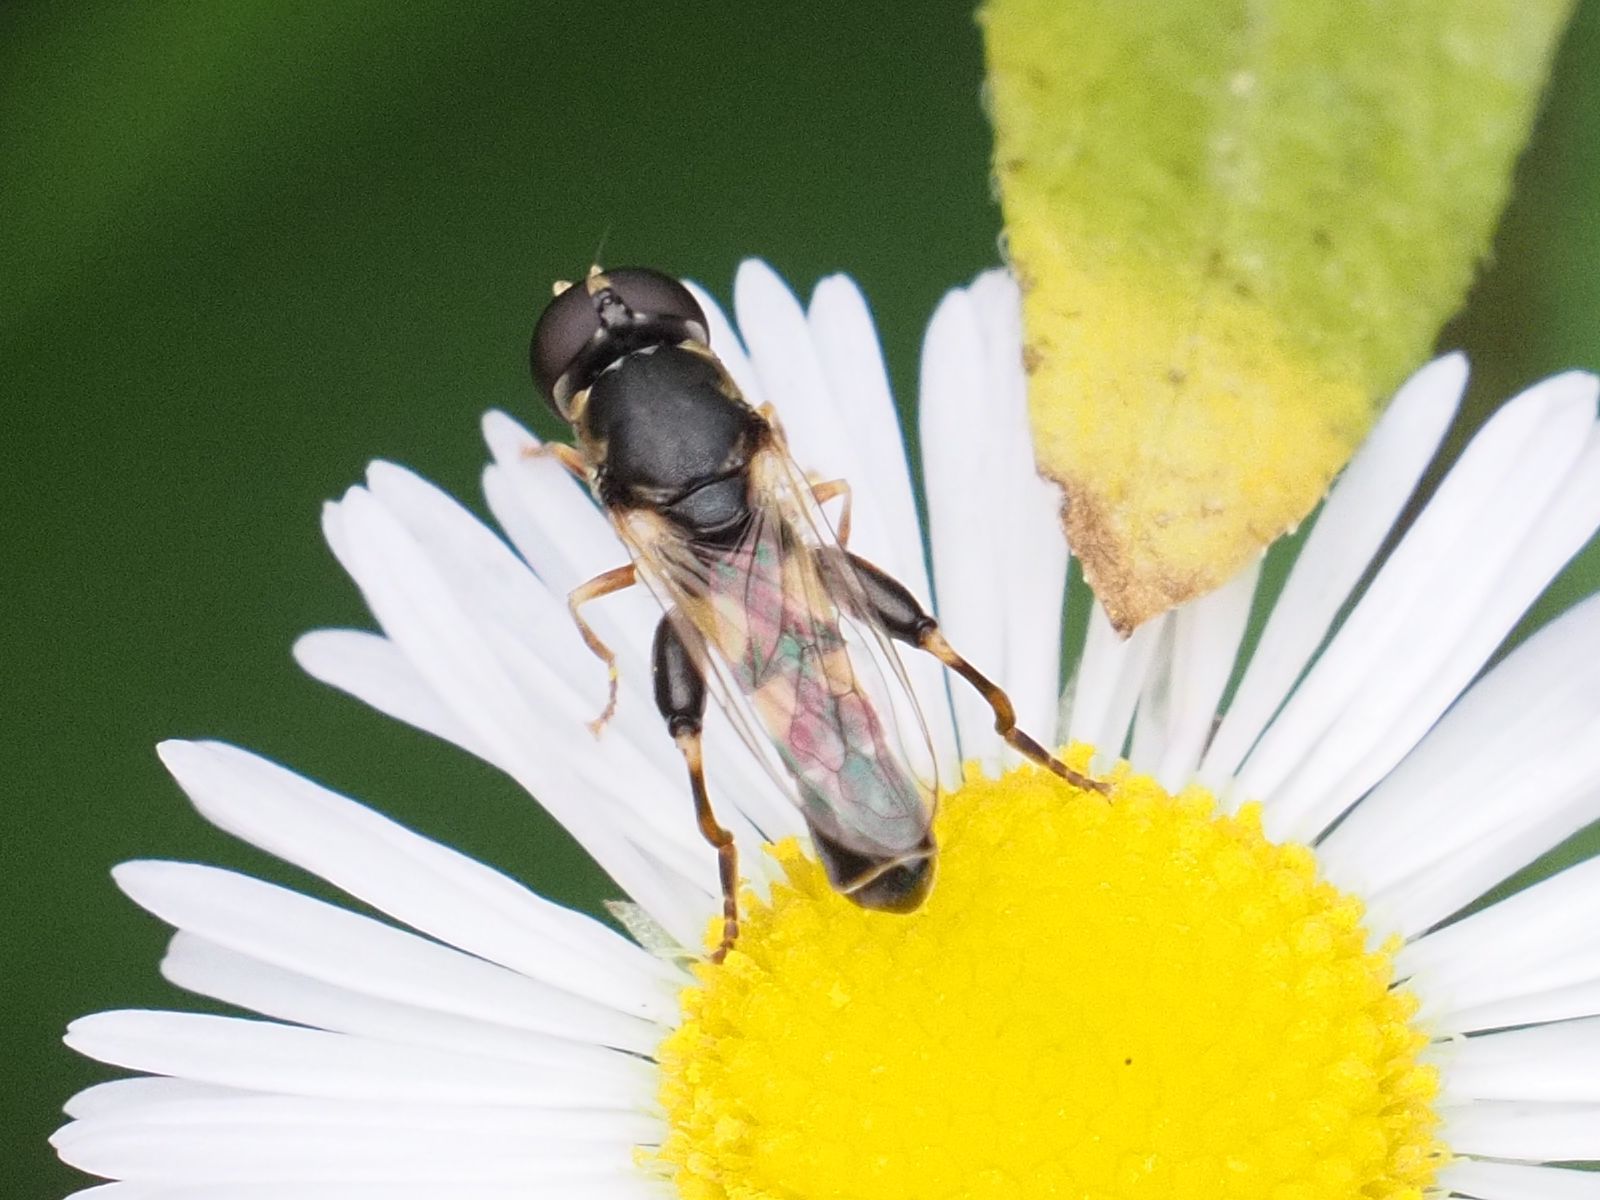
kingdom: Animalia
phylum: Arthropoda
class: Insecta
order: Diptera
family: Syrphidae
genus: Syritta
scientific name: Syritta pipiens
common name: Hover fly
